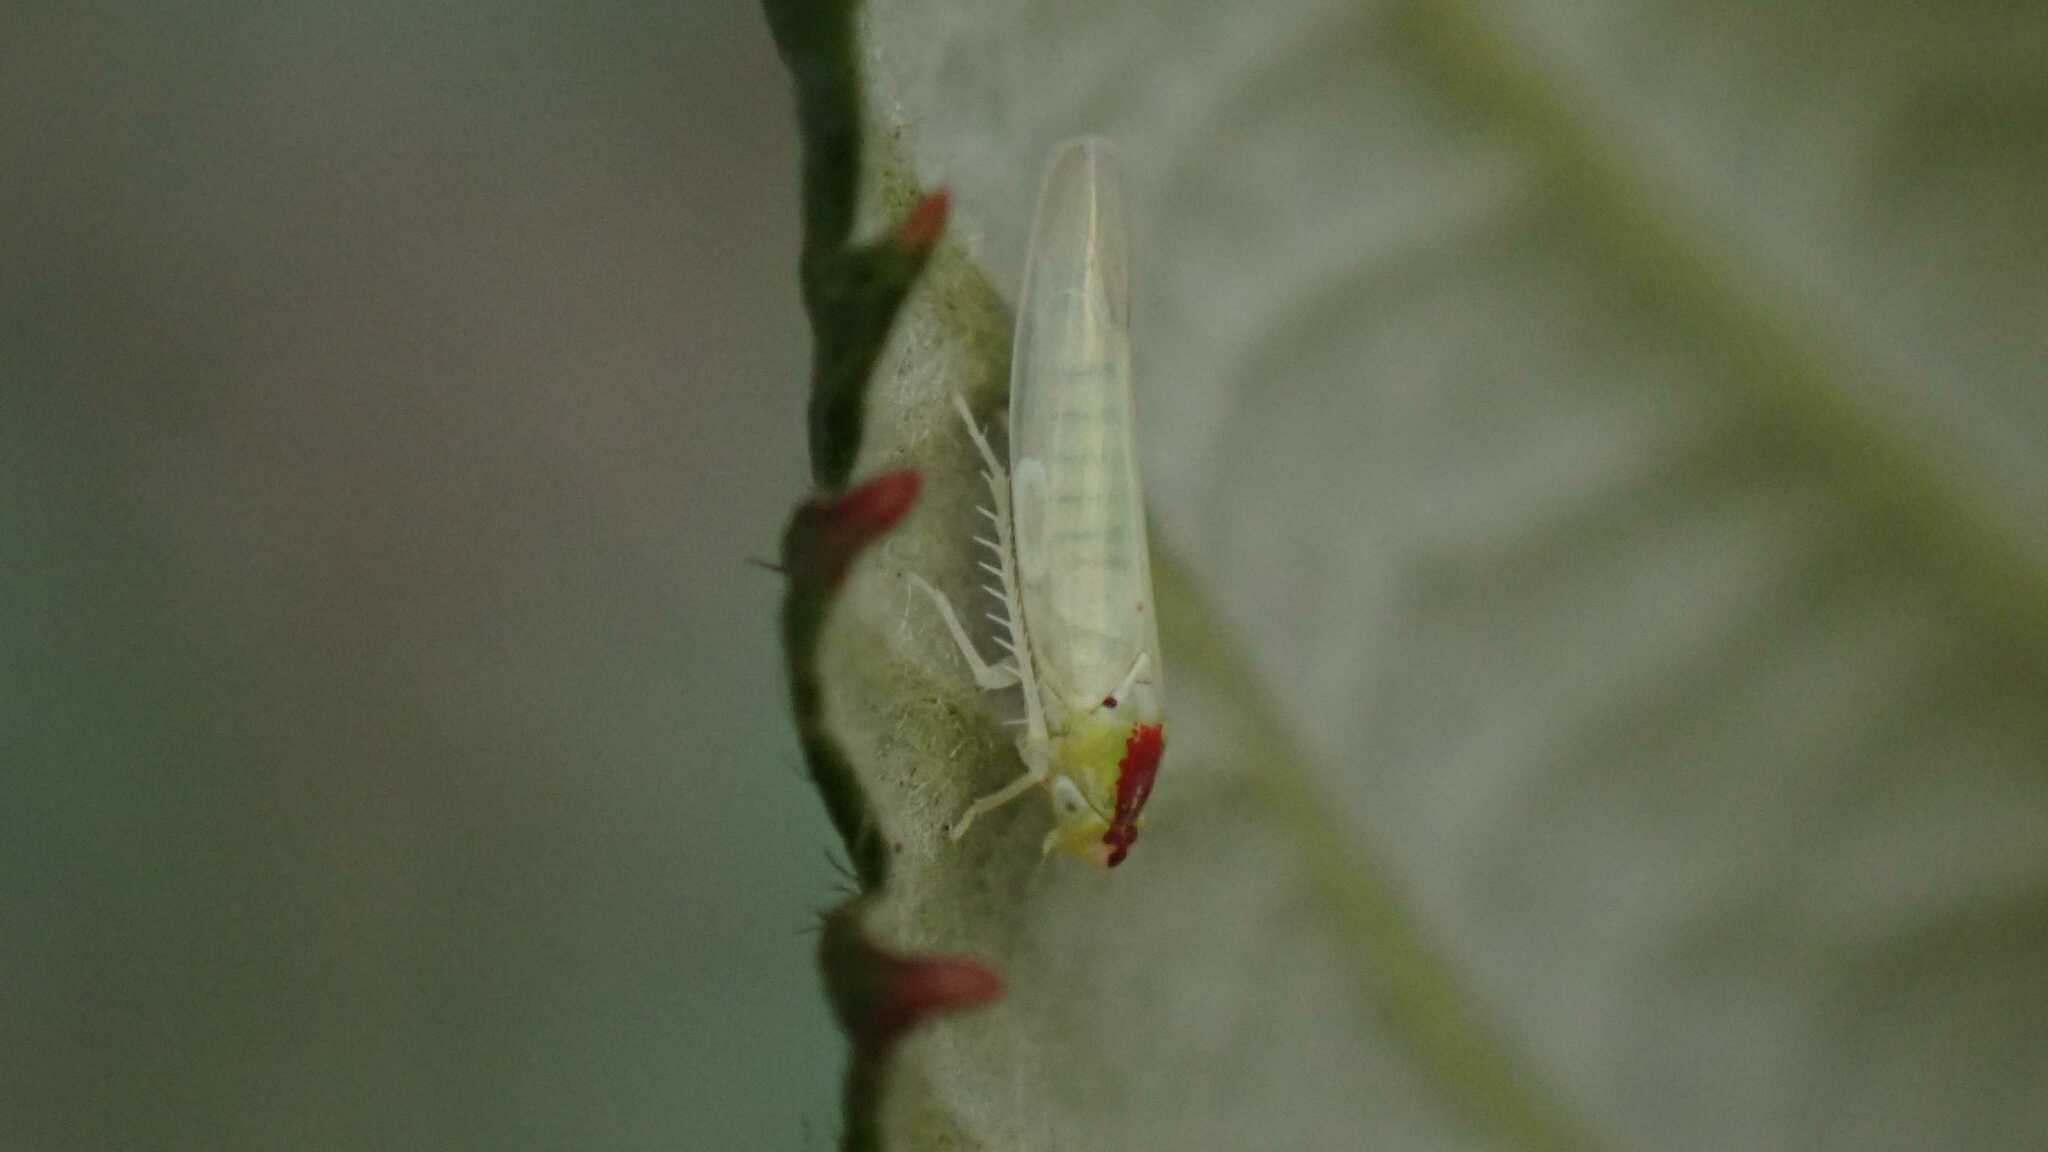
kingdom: Animalia
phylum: Arthropoda
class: Insecta
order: Hemiptera
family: Cicadellidae
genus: Zygina
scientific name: Zygina nivea
